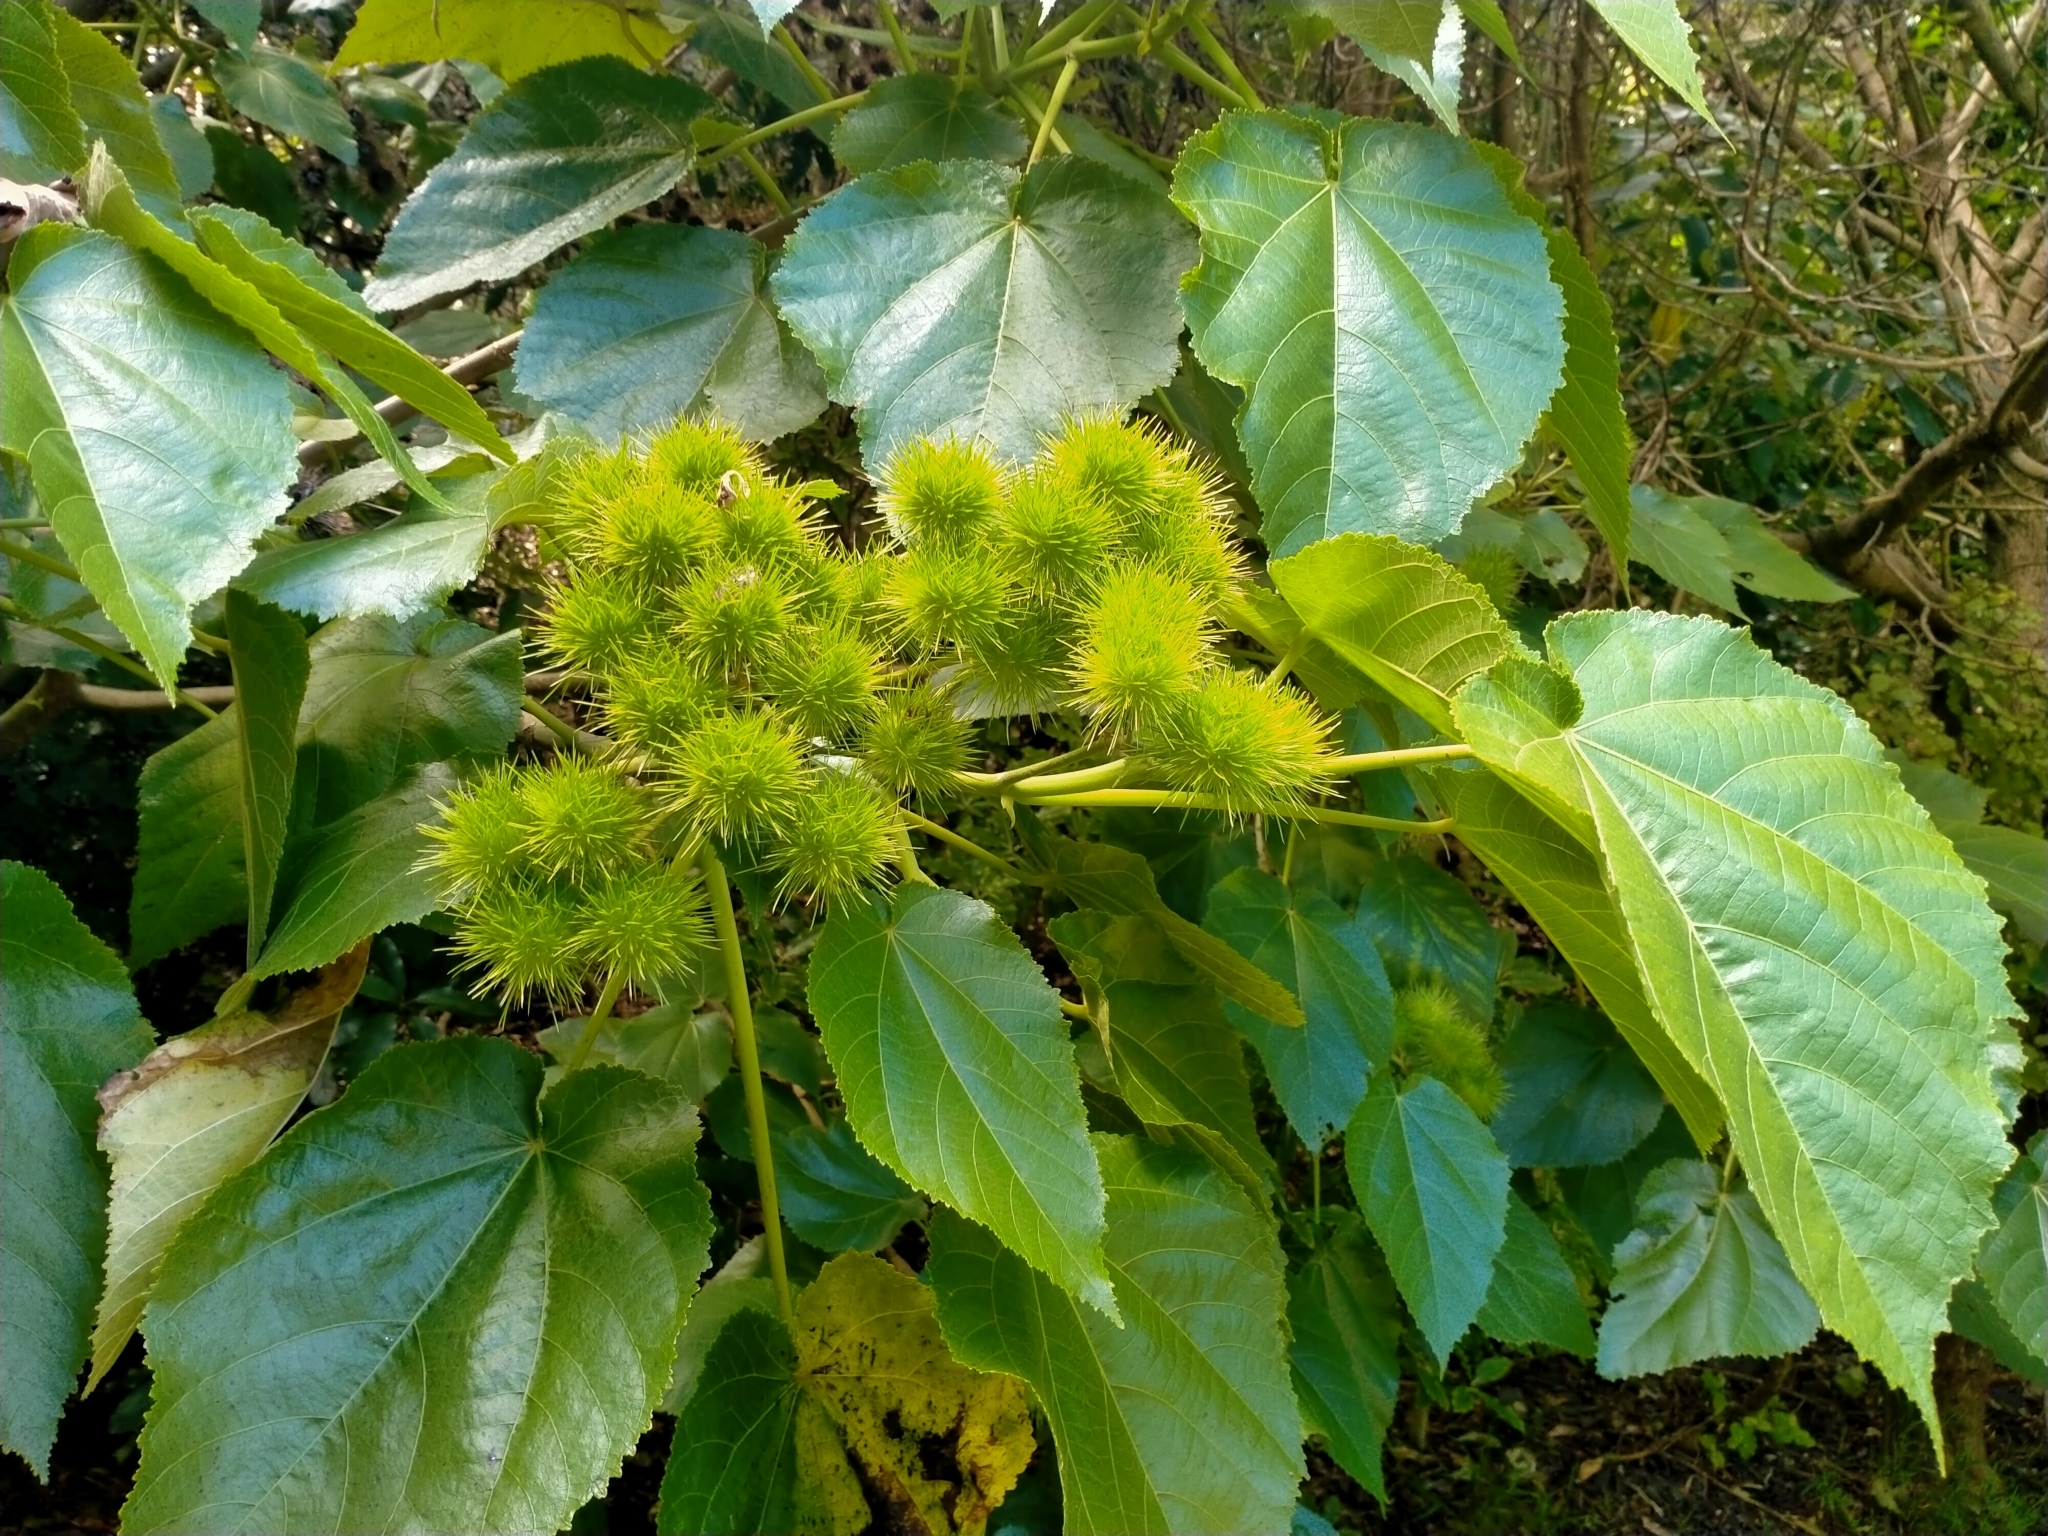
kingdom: Plantae
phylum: Tracheophyta
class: Magnoliopsida
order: Malvales
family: Malvaceae
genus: Entelea
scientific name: Entelea arborescens
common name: New zealand-mulberry
